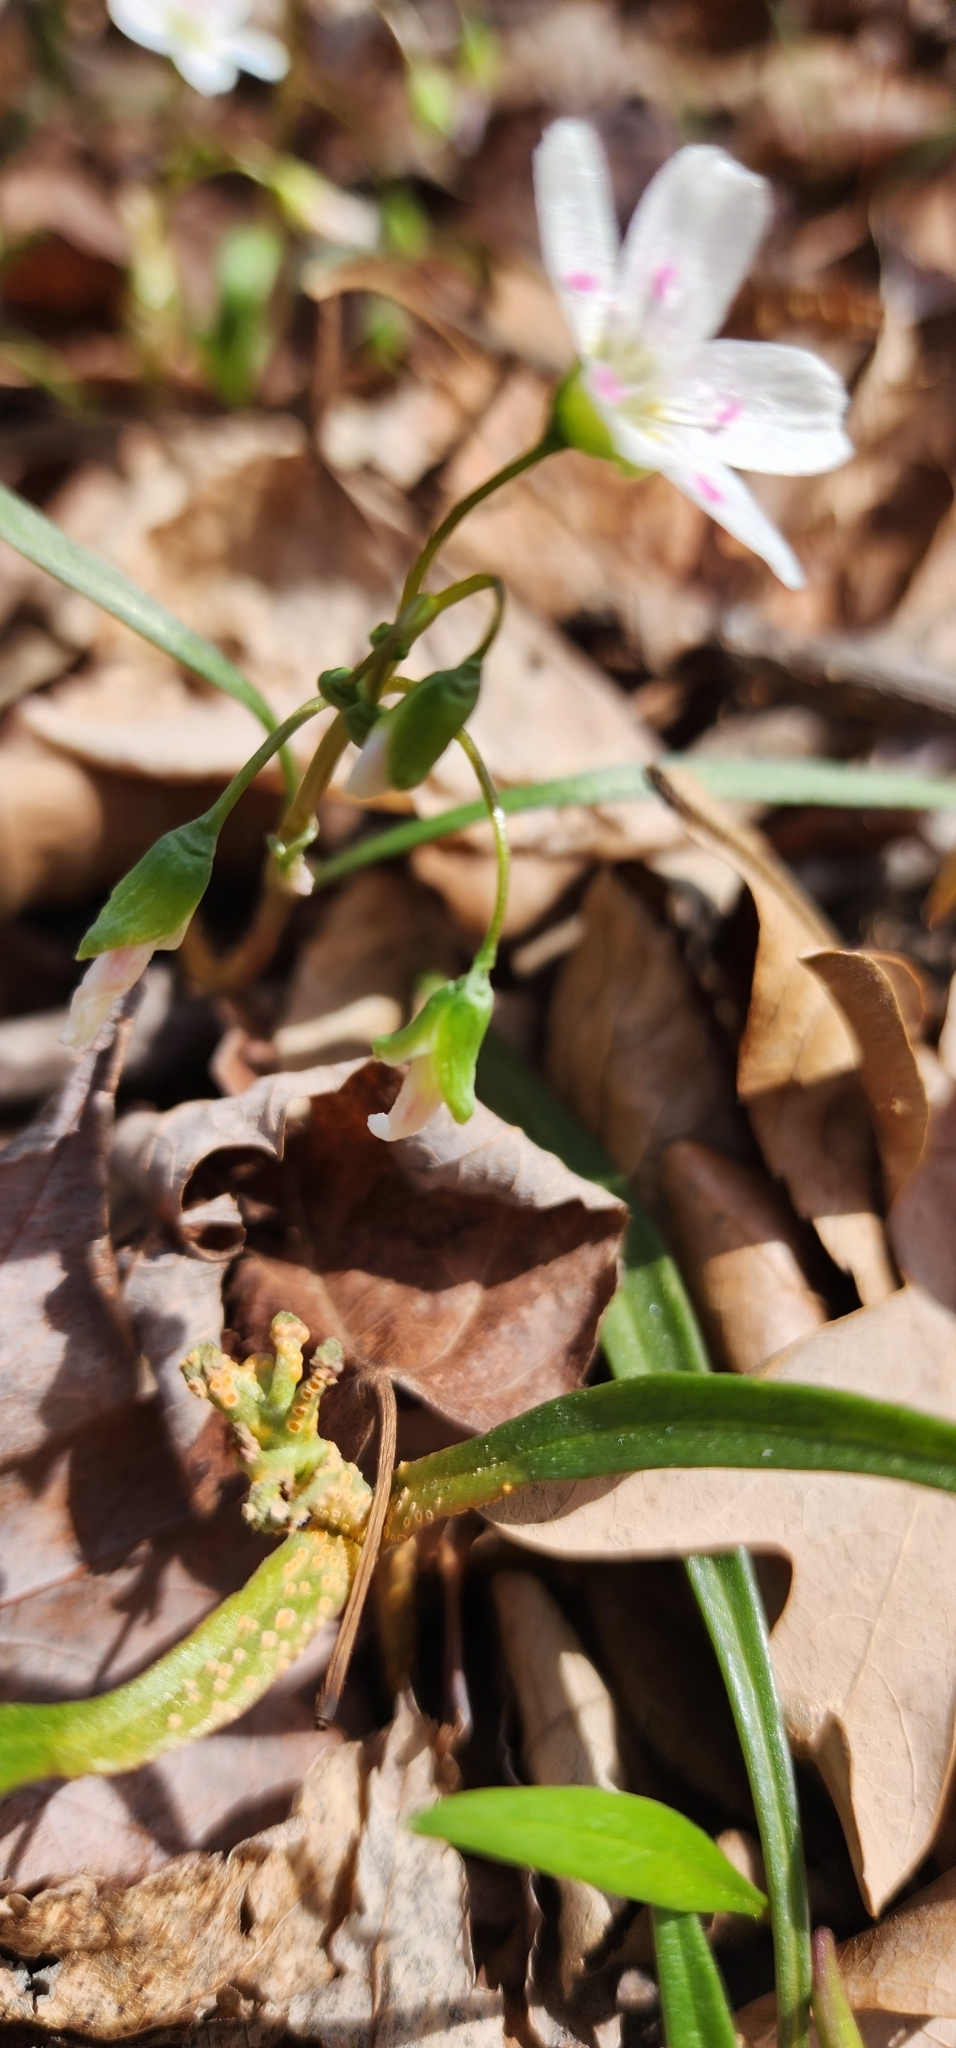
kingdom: Fungi
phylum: Basidiomycota
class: Pucciniomycetes
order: Pucciniales
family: Pucciniaceae
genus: Puccinia
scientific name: Puccinia mariae-wilsoniae
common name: Spring beauty rust
